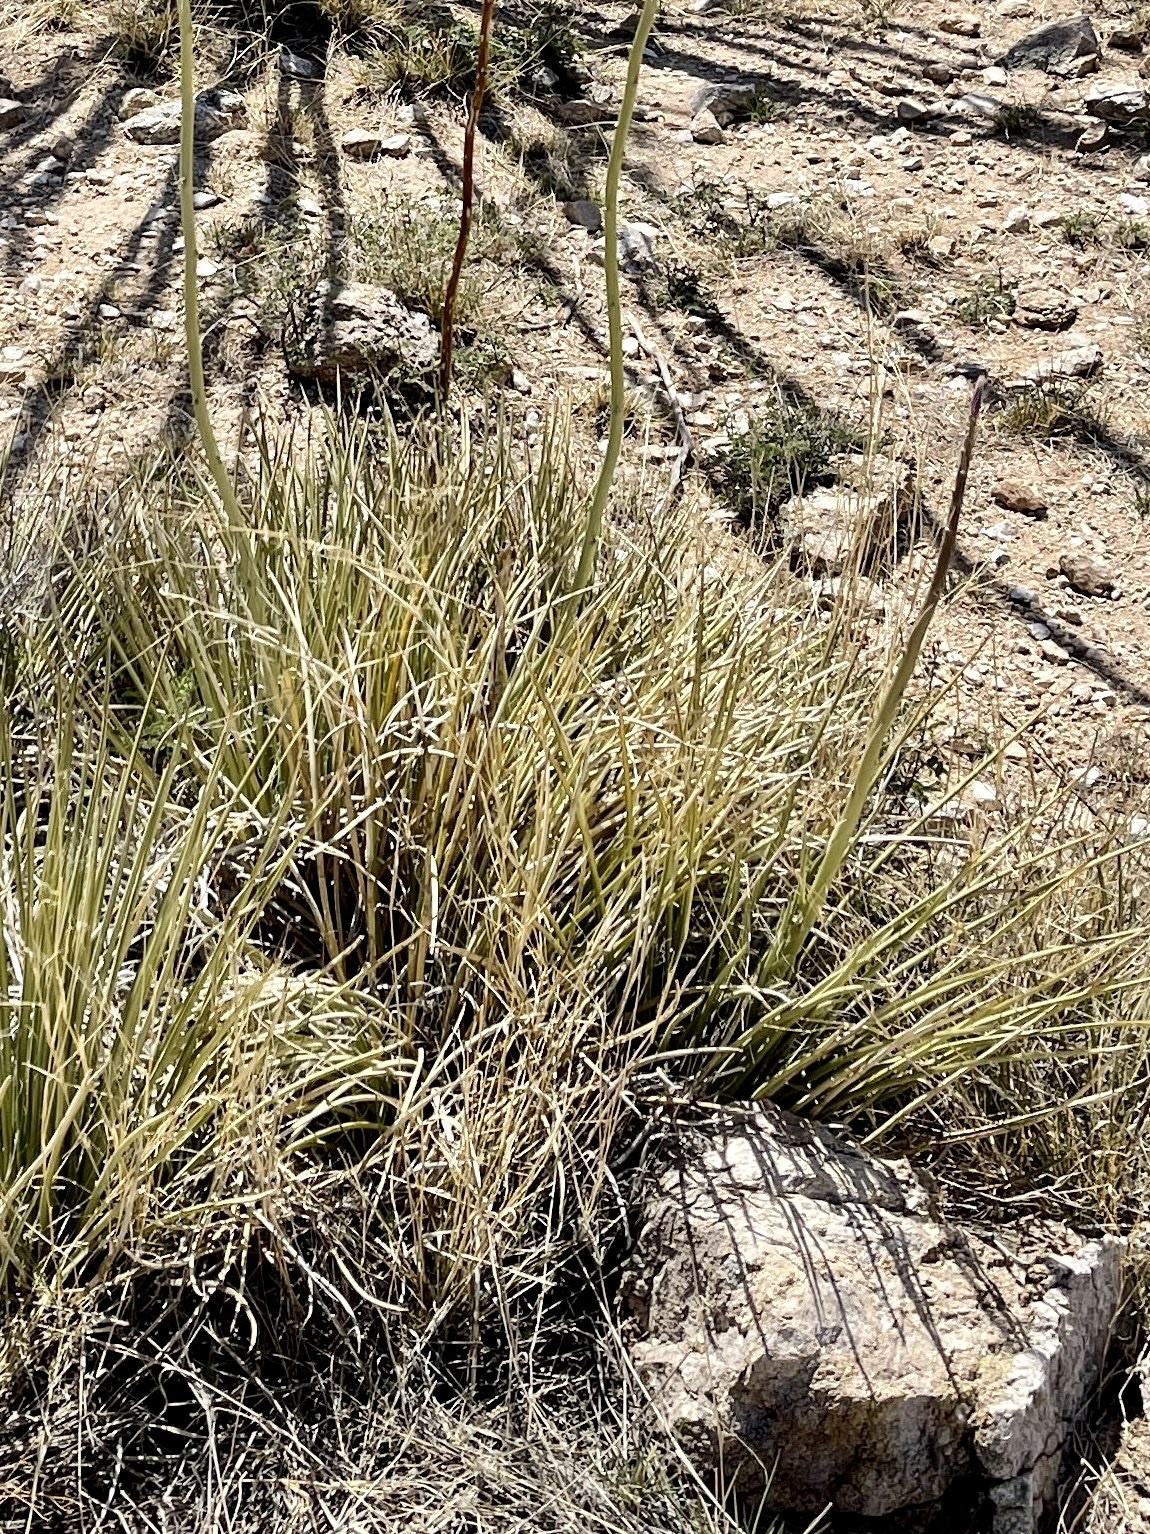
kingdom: Plantae
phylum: Tracheophyta
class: Liliopsida
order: Asparagales
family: Asparagaceae
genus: Agave
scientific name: Agave schottii
